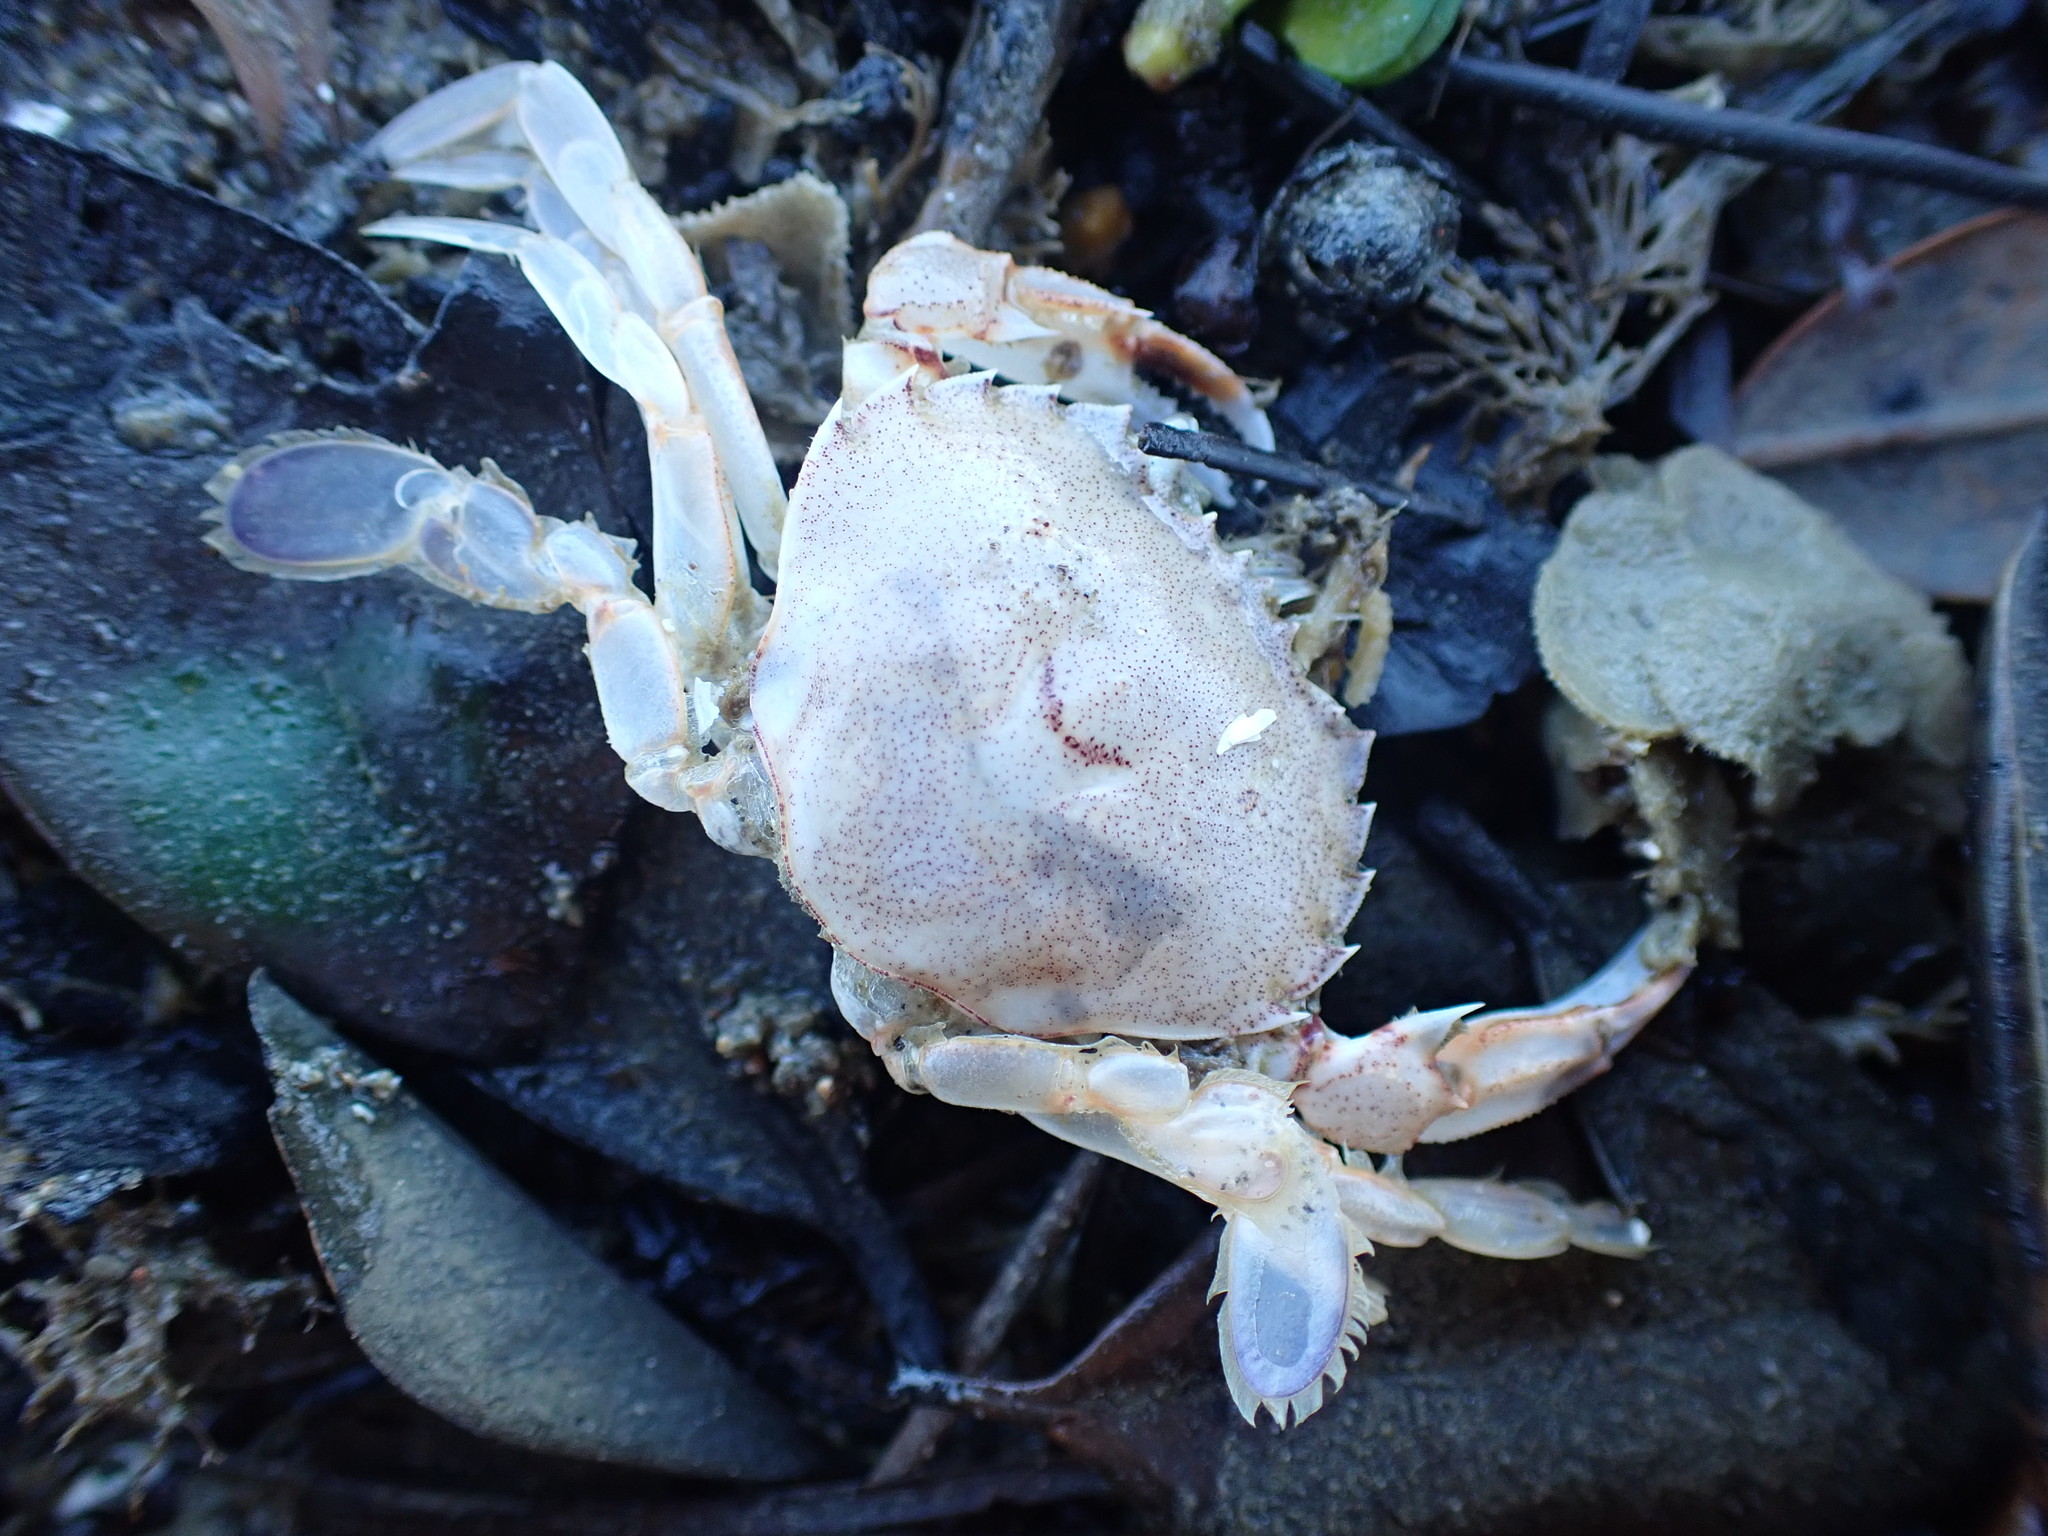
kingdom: Animalia
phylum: Arthropoda
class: Malacostraca
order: Decapoda
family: Ovalipidae
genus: Ovalipes
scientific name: Ovalipes catharus
